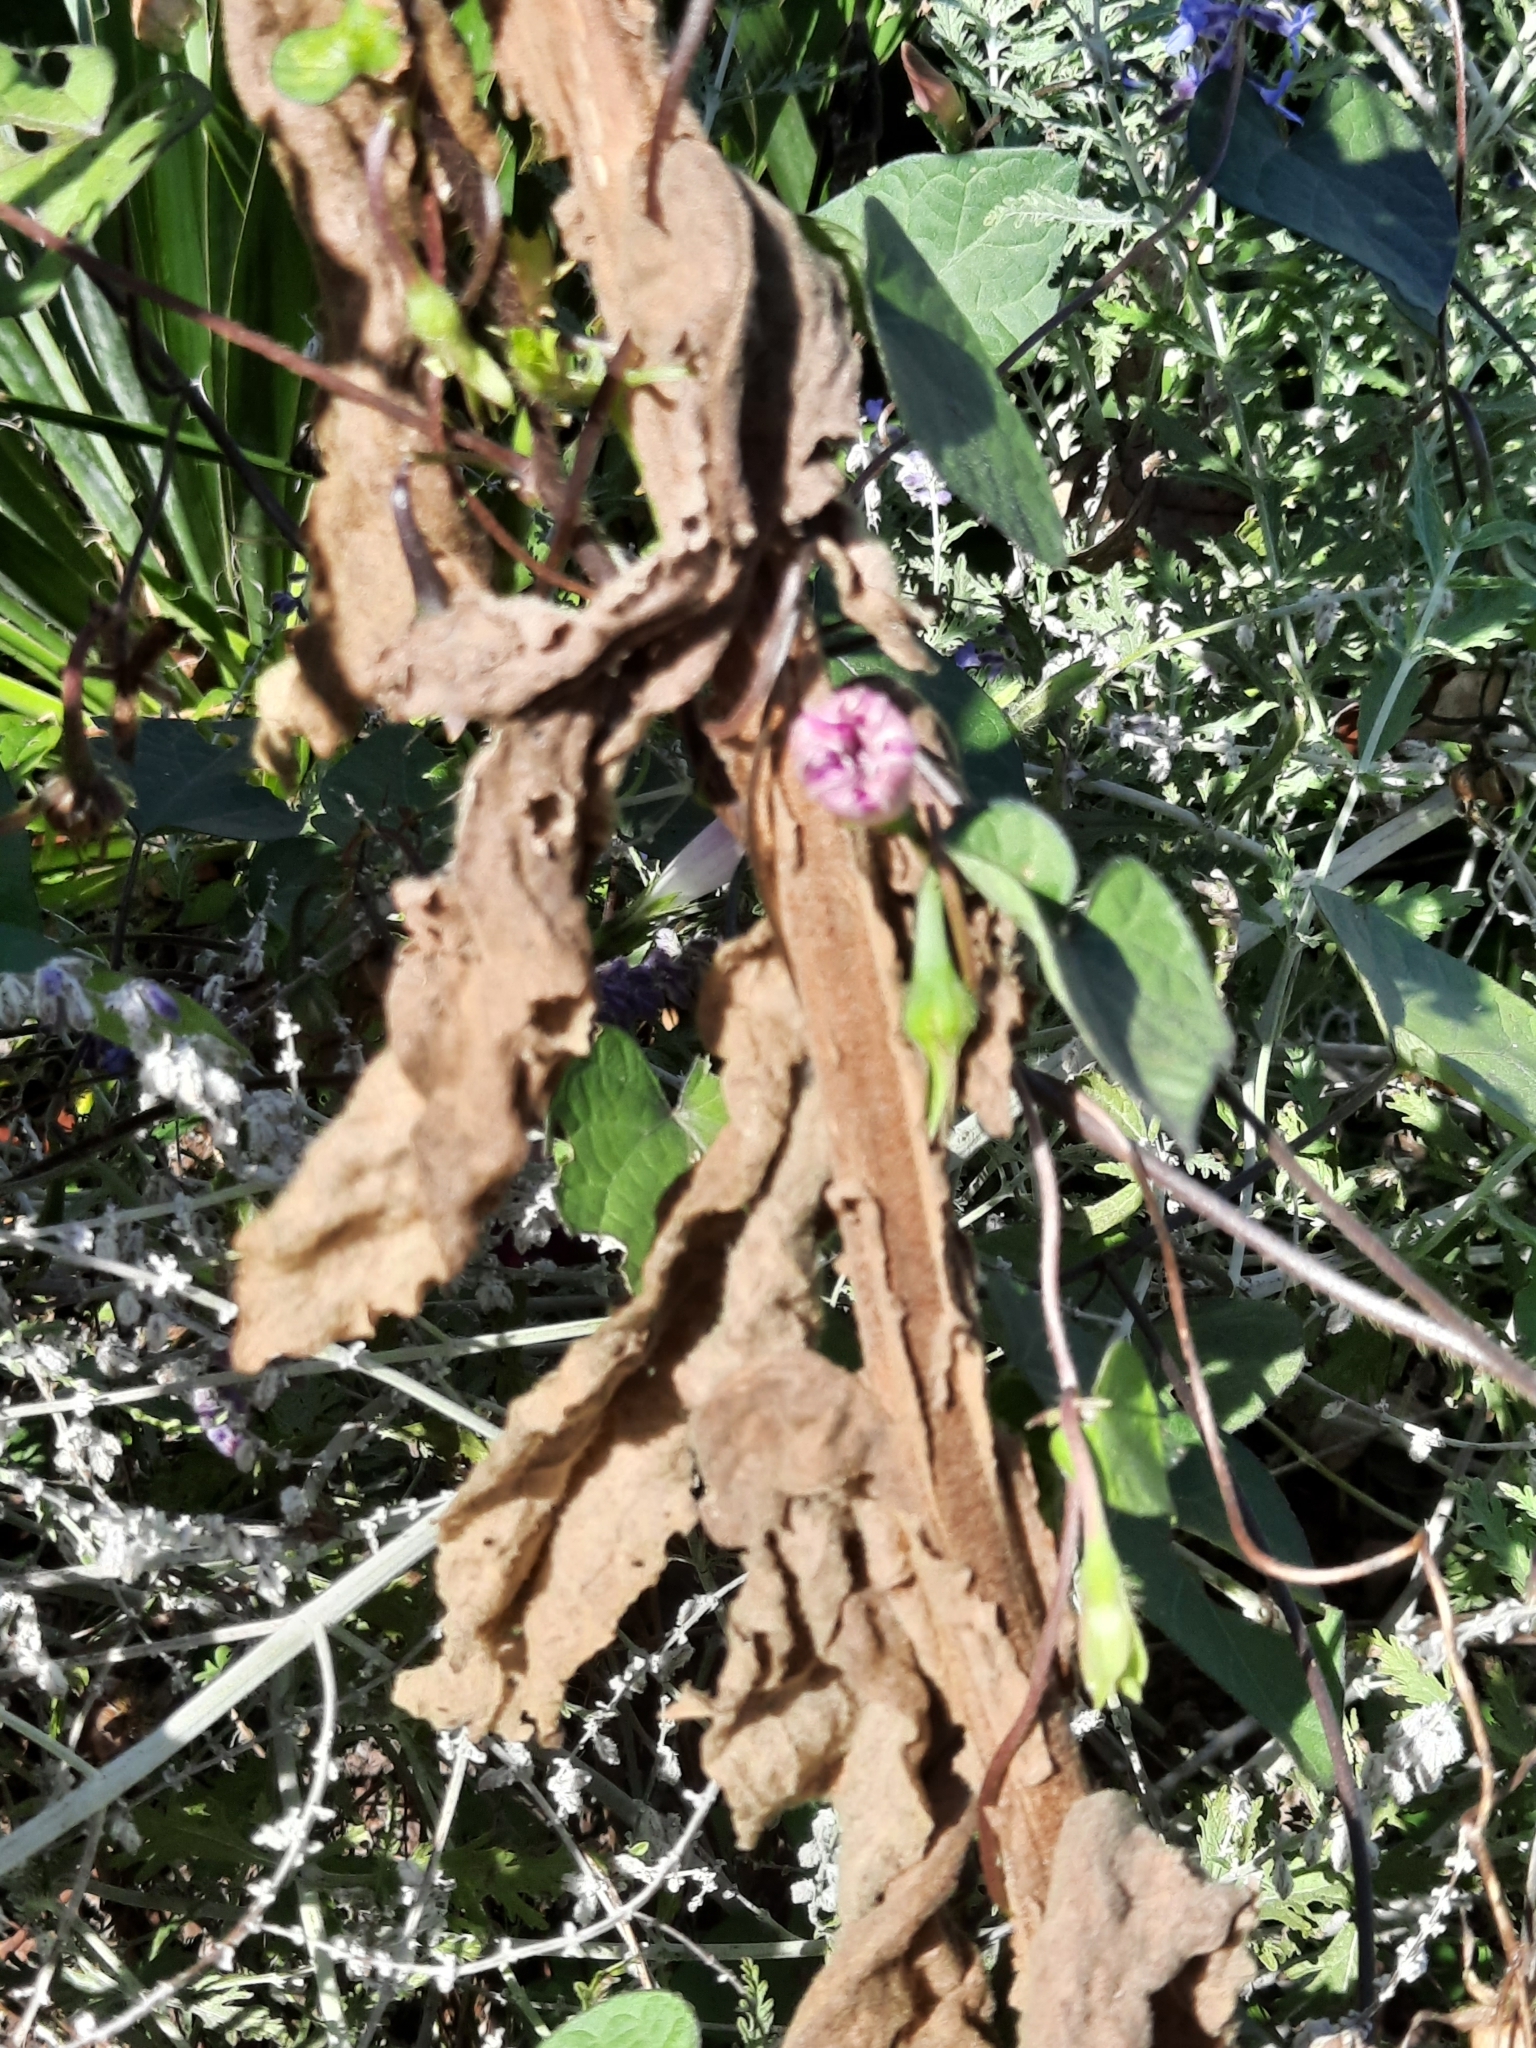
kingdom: Plantae
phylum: Tracheophyta
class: Magnoliopsida
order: Lamiales
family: Scrophulariaceae
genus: Verbascum
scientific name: Verbascum thapsus
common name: Common mullein
